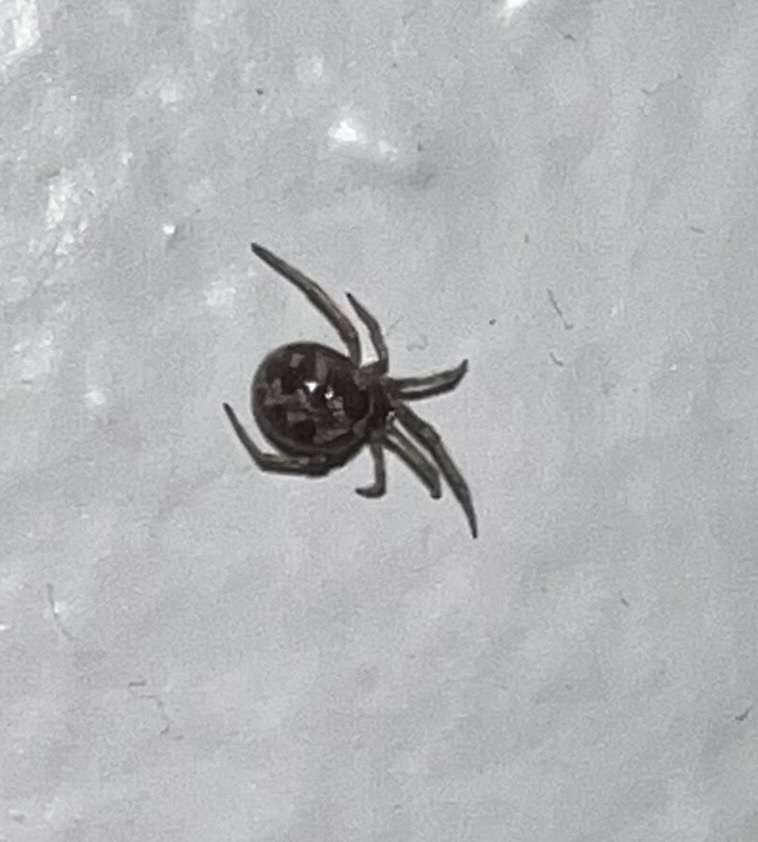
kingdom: Animalia
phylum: Arthropoda
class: Arachnida
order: Araneae
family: Theridiidae
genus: Steatoda
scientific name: Steatoda triangulosa
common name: Triangulate bud spider
